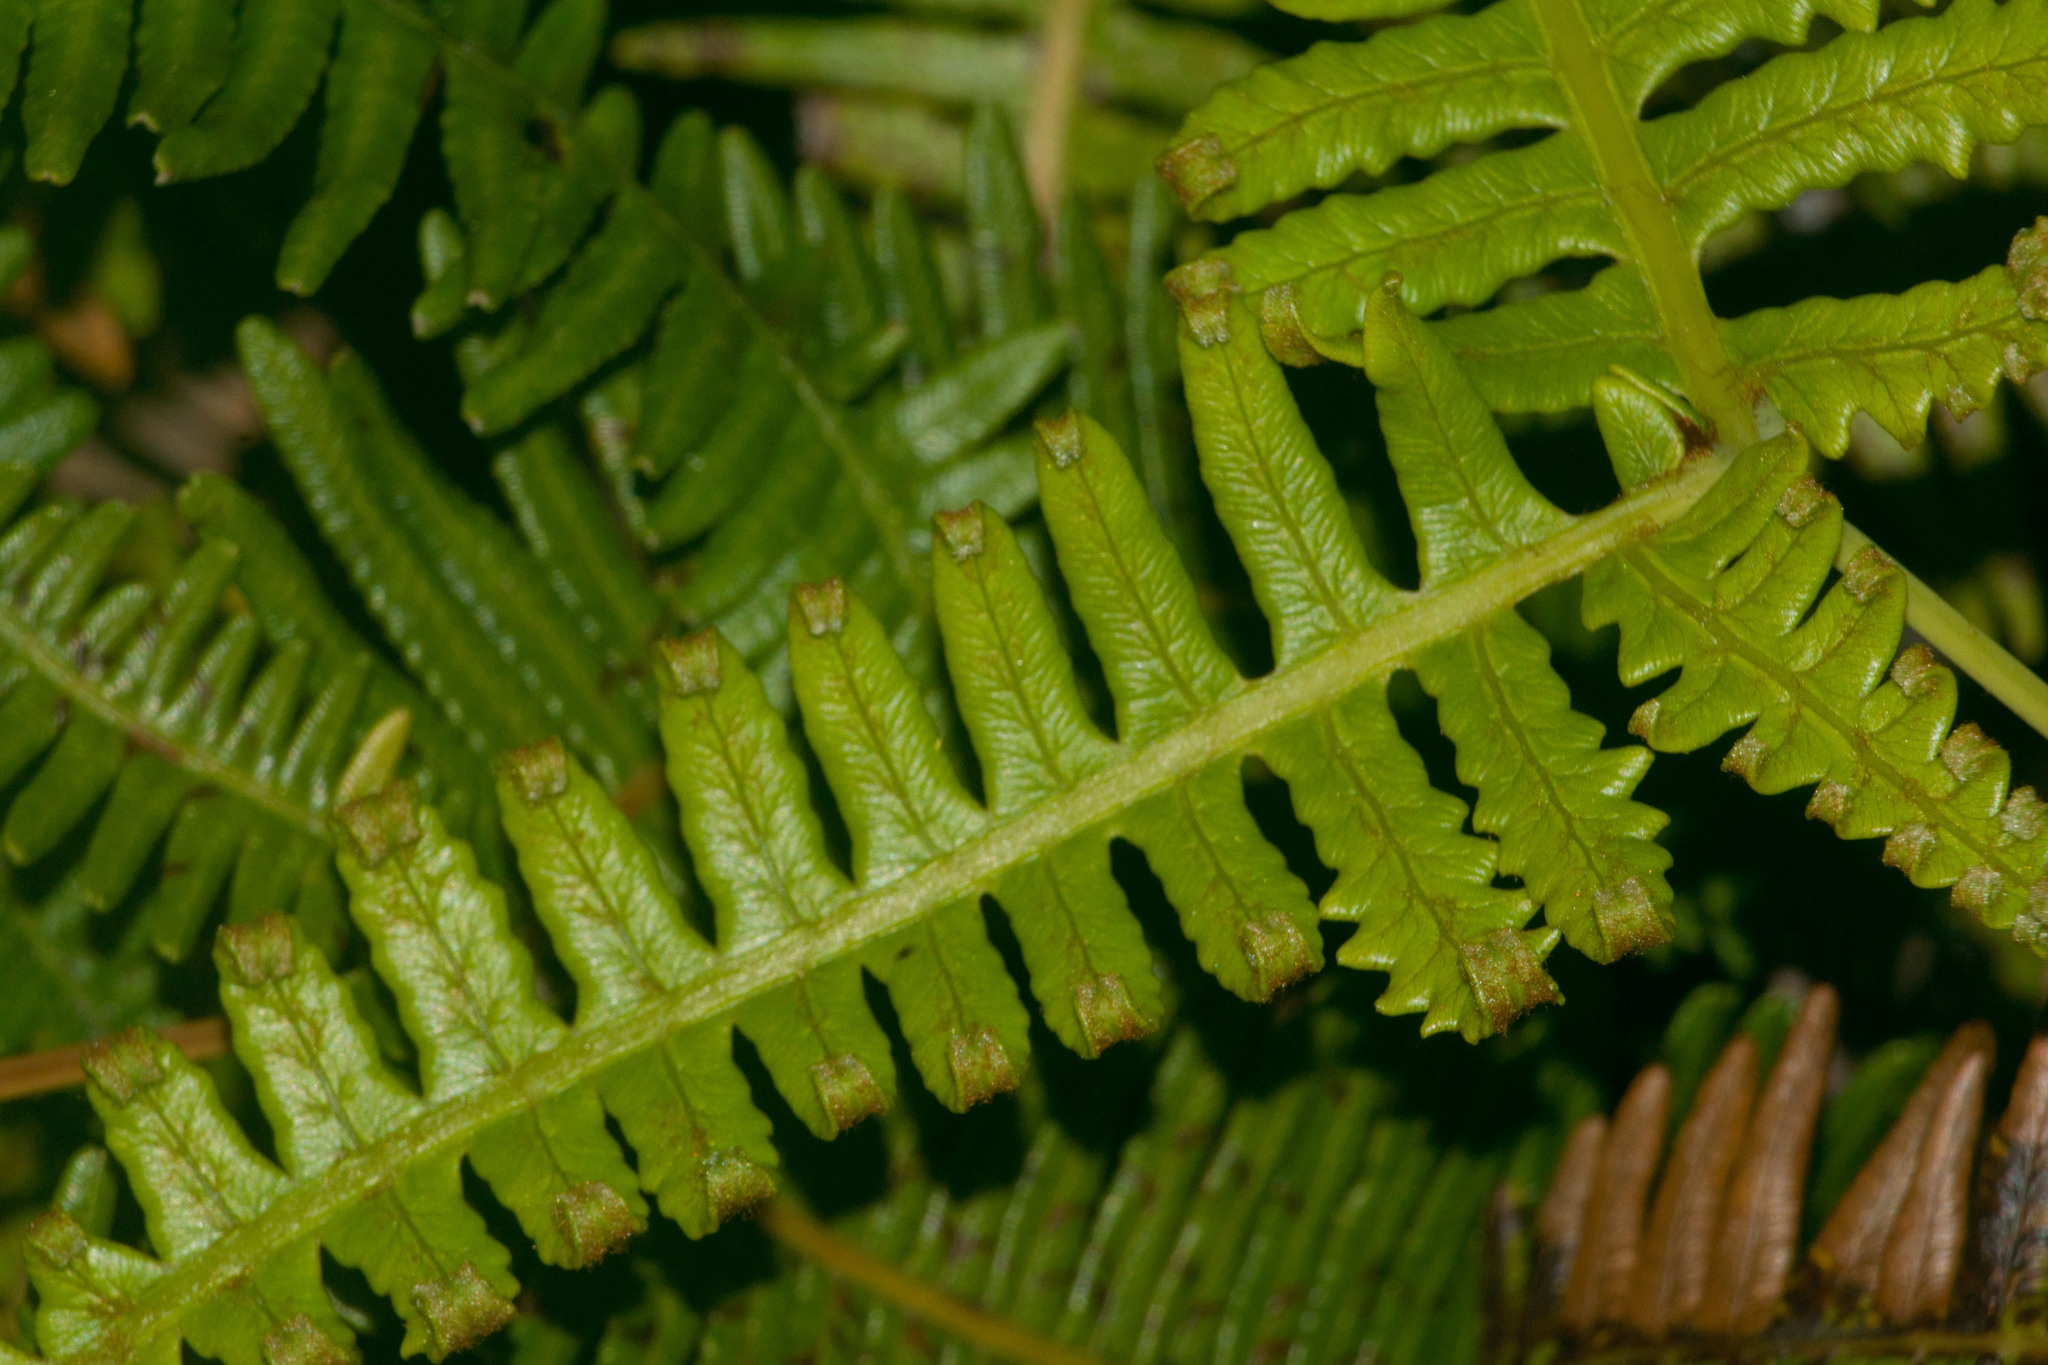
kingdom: Plantae
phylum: Tracheophyta
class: Polypodiopsida
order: Gleicheniales
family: Gleicheniaceae
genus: Dicranopteris
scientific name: Dicranopteris linearis
